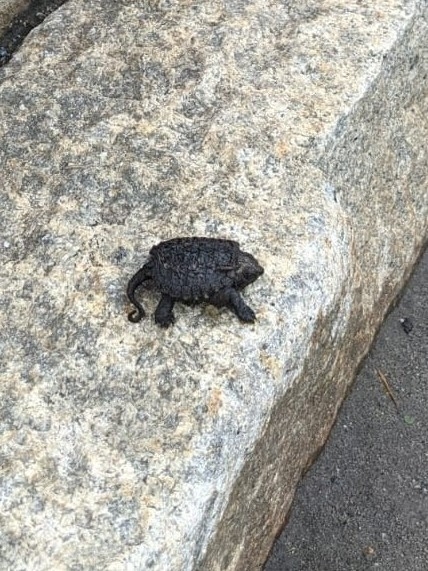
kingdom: Animalia
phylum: Chordata
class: Testudines
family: Chelydridae
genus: Chelydra
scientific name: Chelydra serpentina
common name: Common snapping turtle
